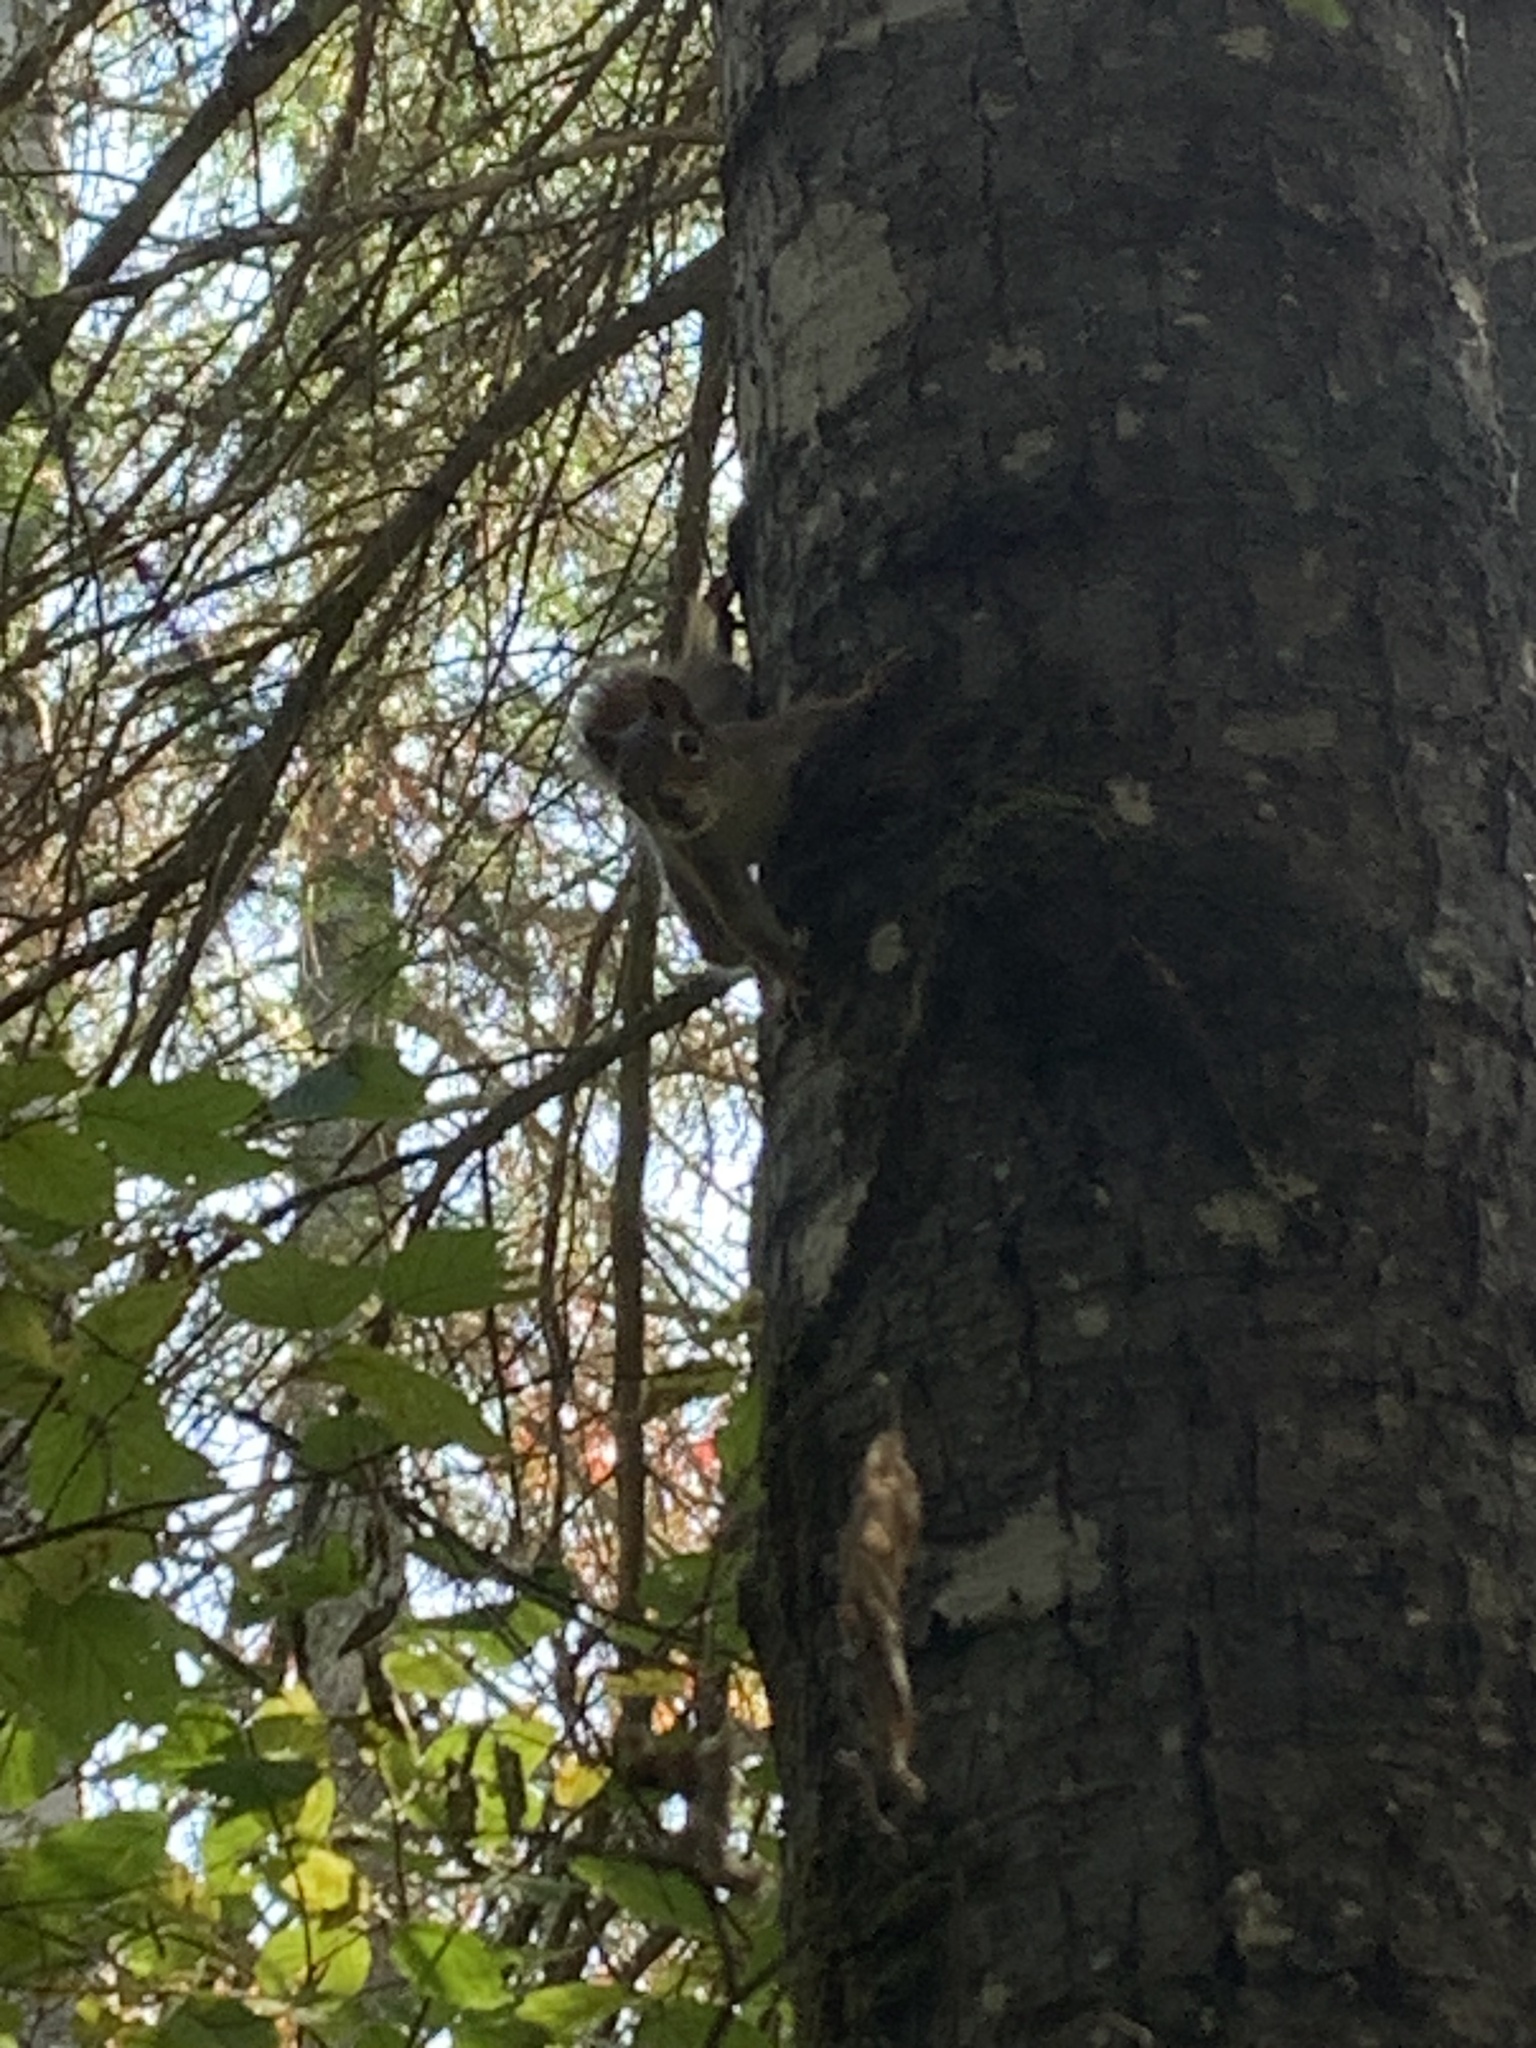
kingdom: Animalia
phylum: Chordata
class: Mammalia
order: Rodentia
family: Sciuridae
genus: Tamiasciurus
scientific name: Tamiasciurus hudsonicus
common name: Red squirrel
